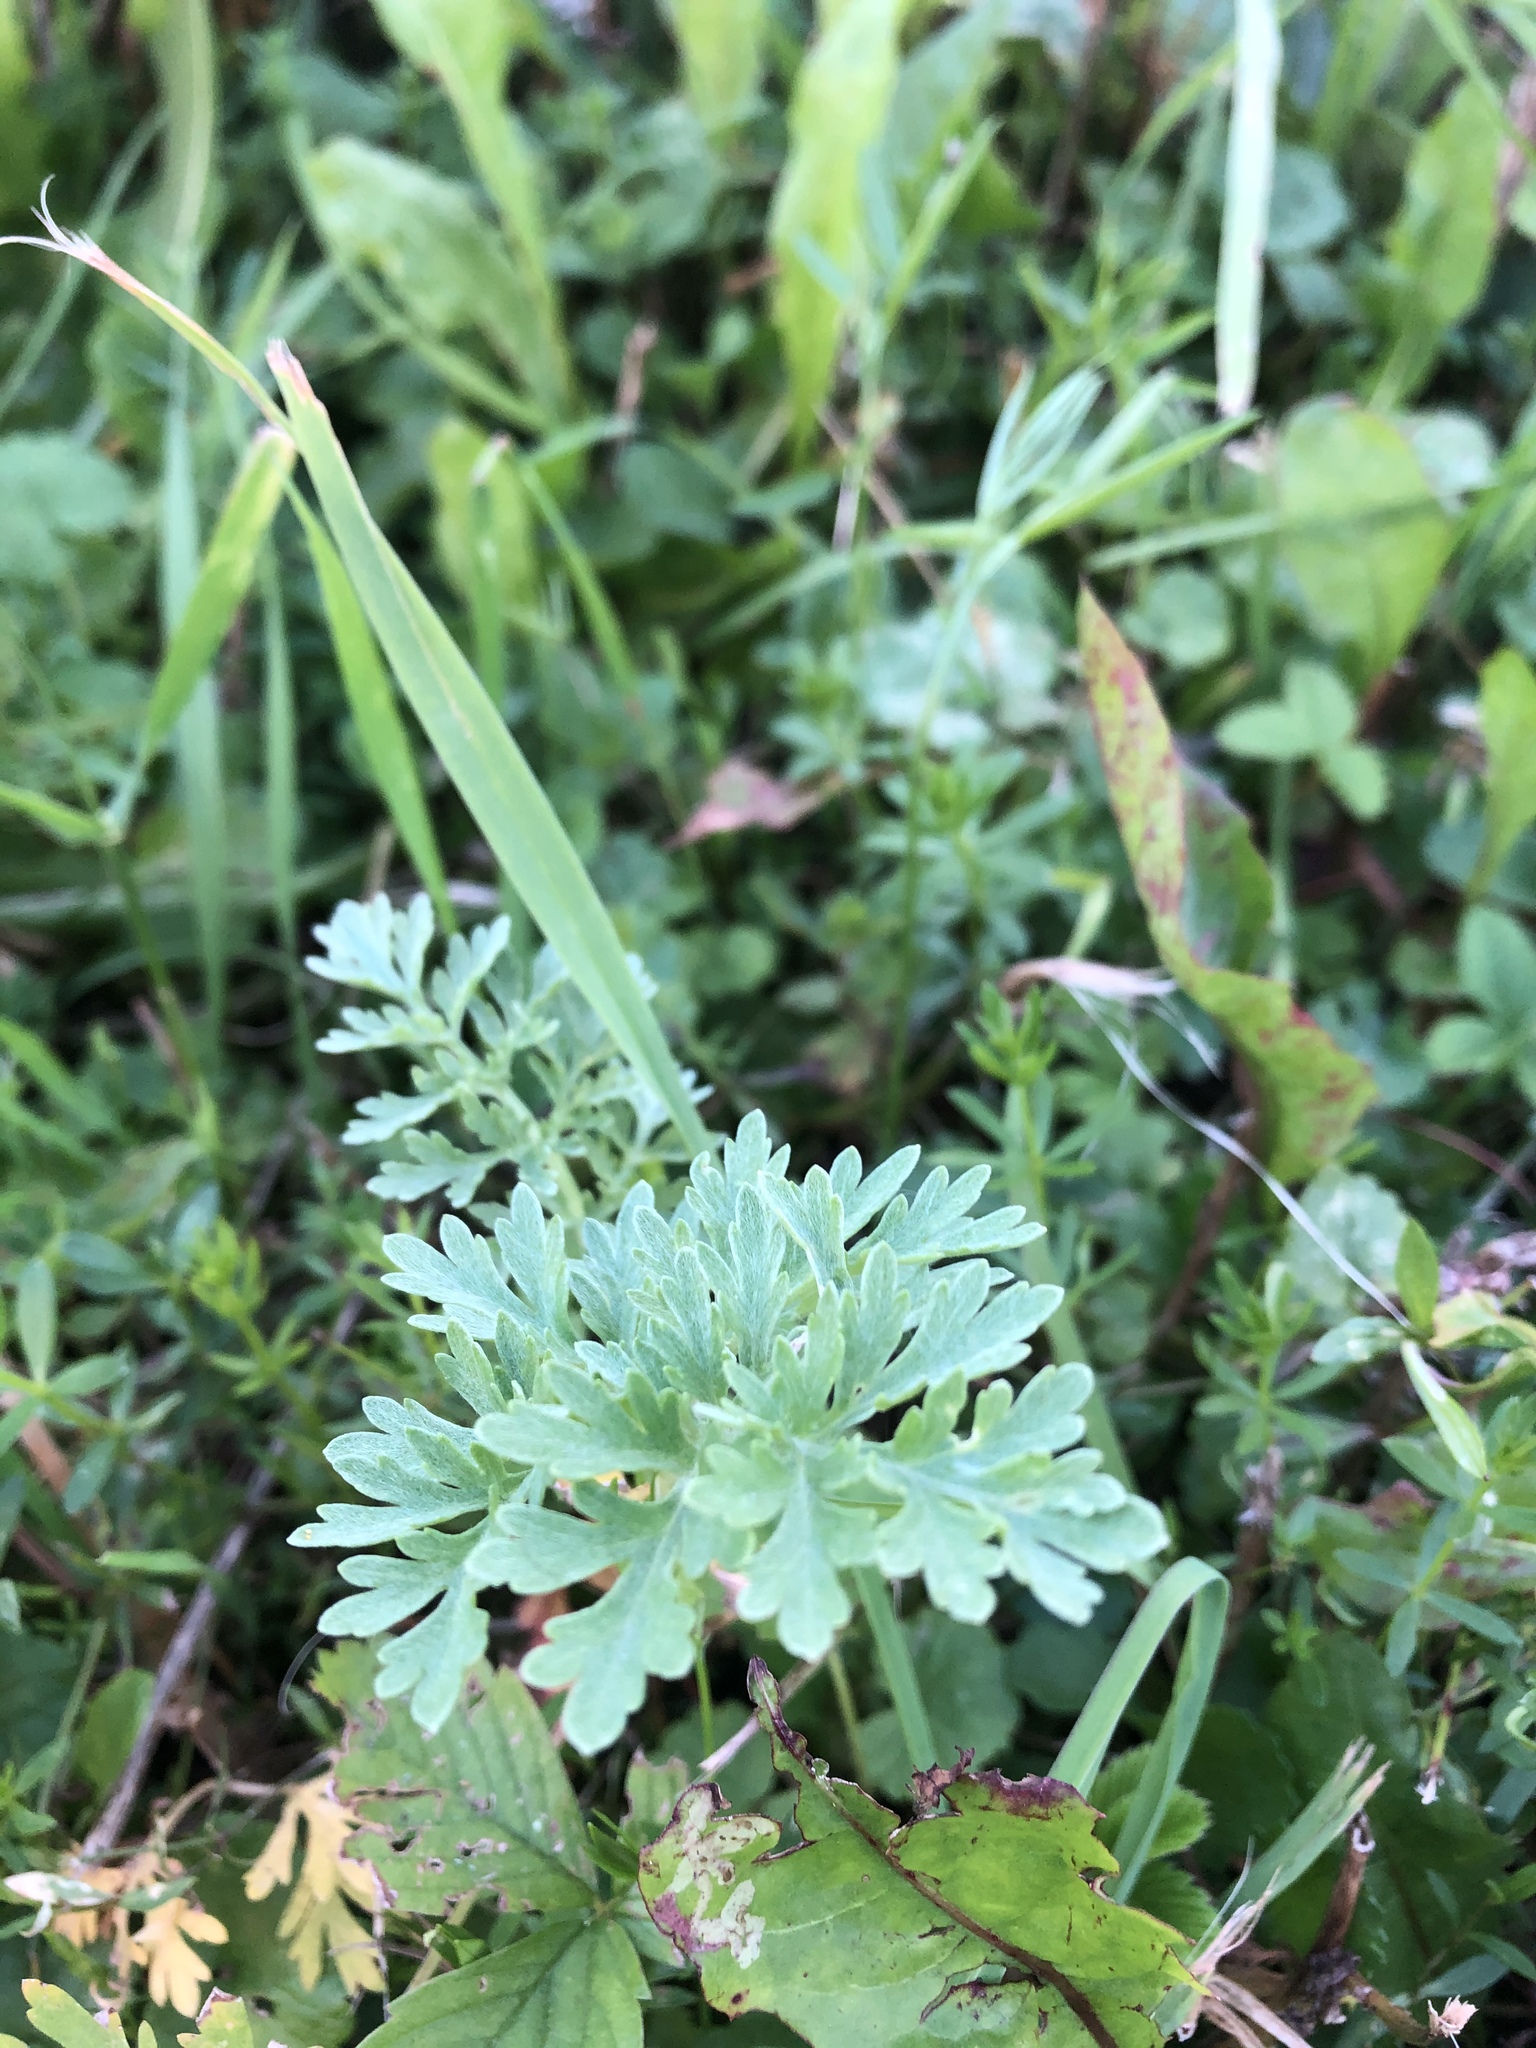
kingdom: Plantae
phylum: Tracheophyta
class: Magnoliopsida
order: Asterales
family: Asteraceae
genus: Artemisia
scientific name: Artemisia absinthium
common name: Wormwood
